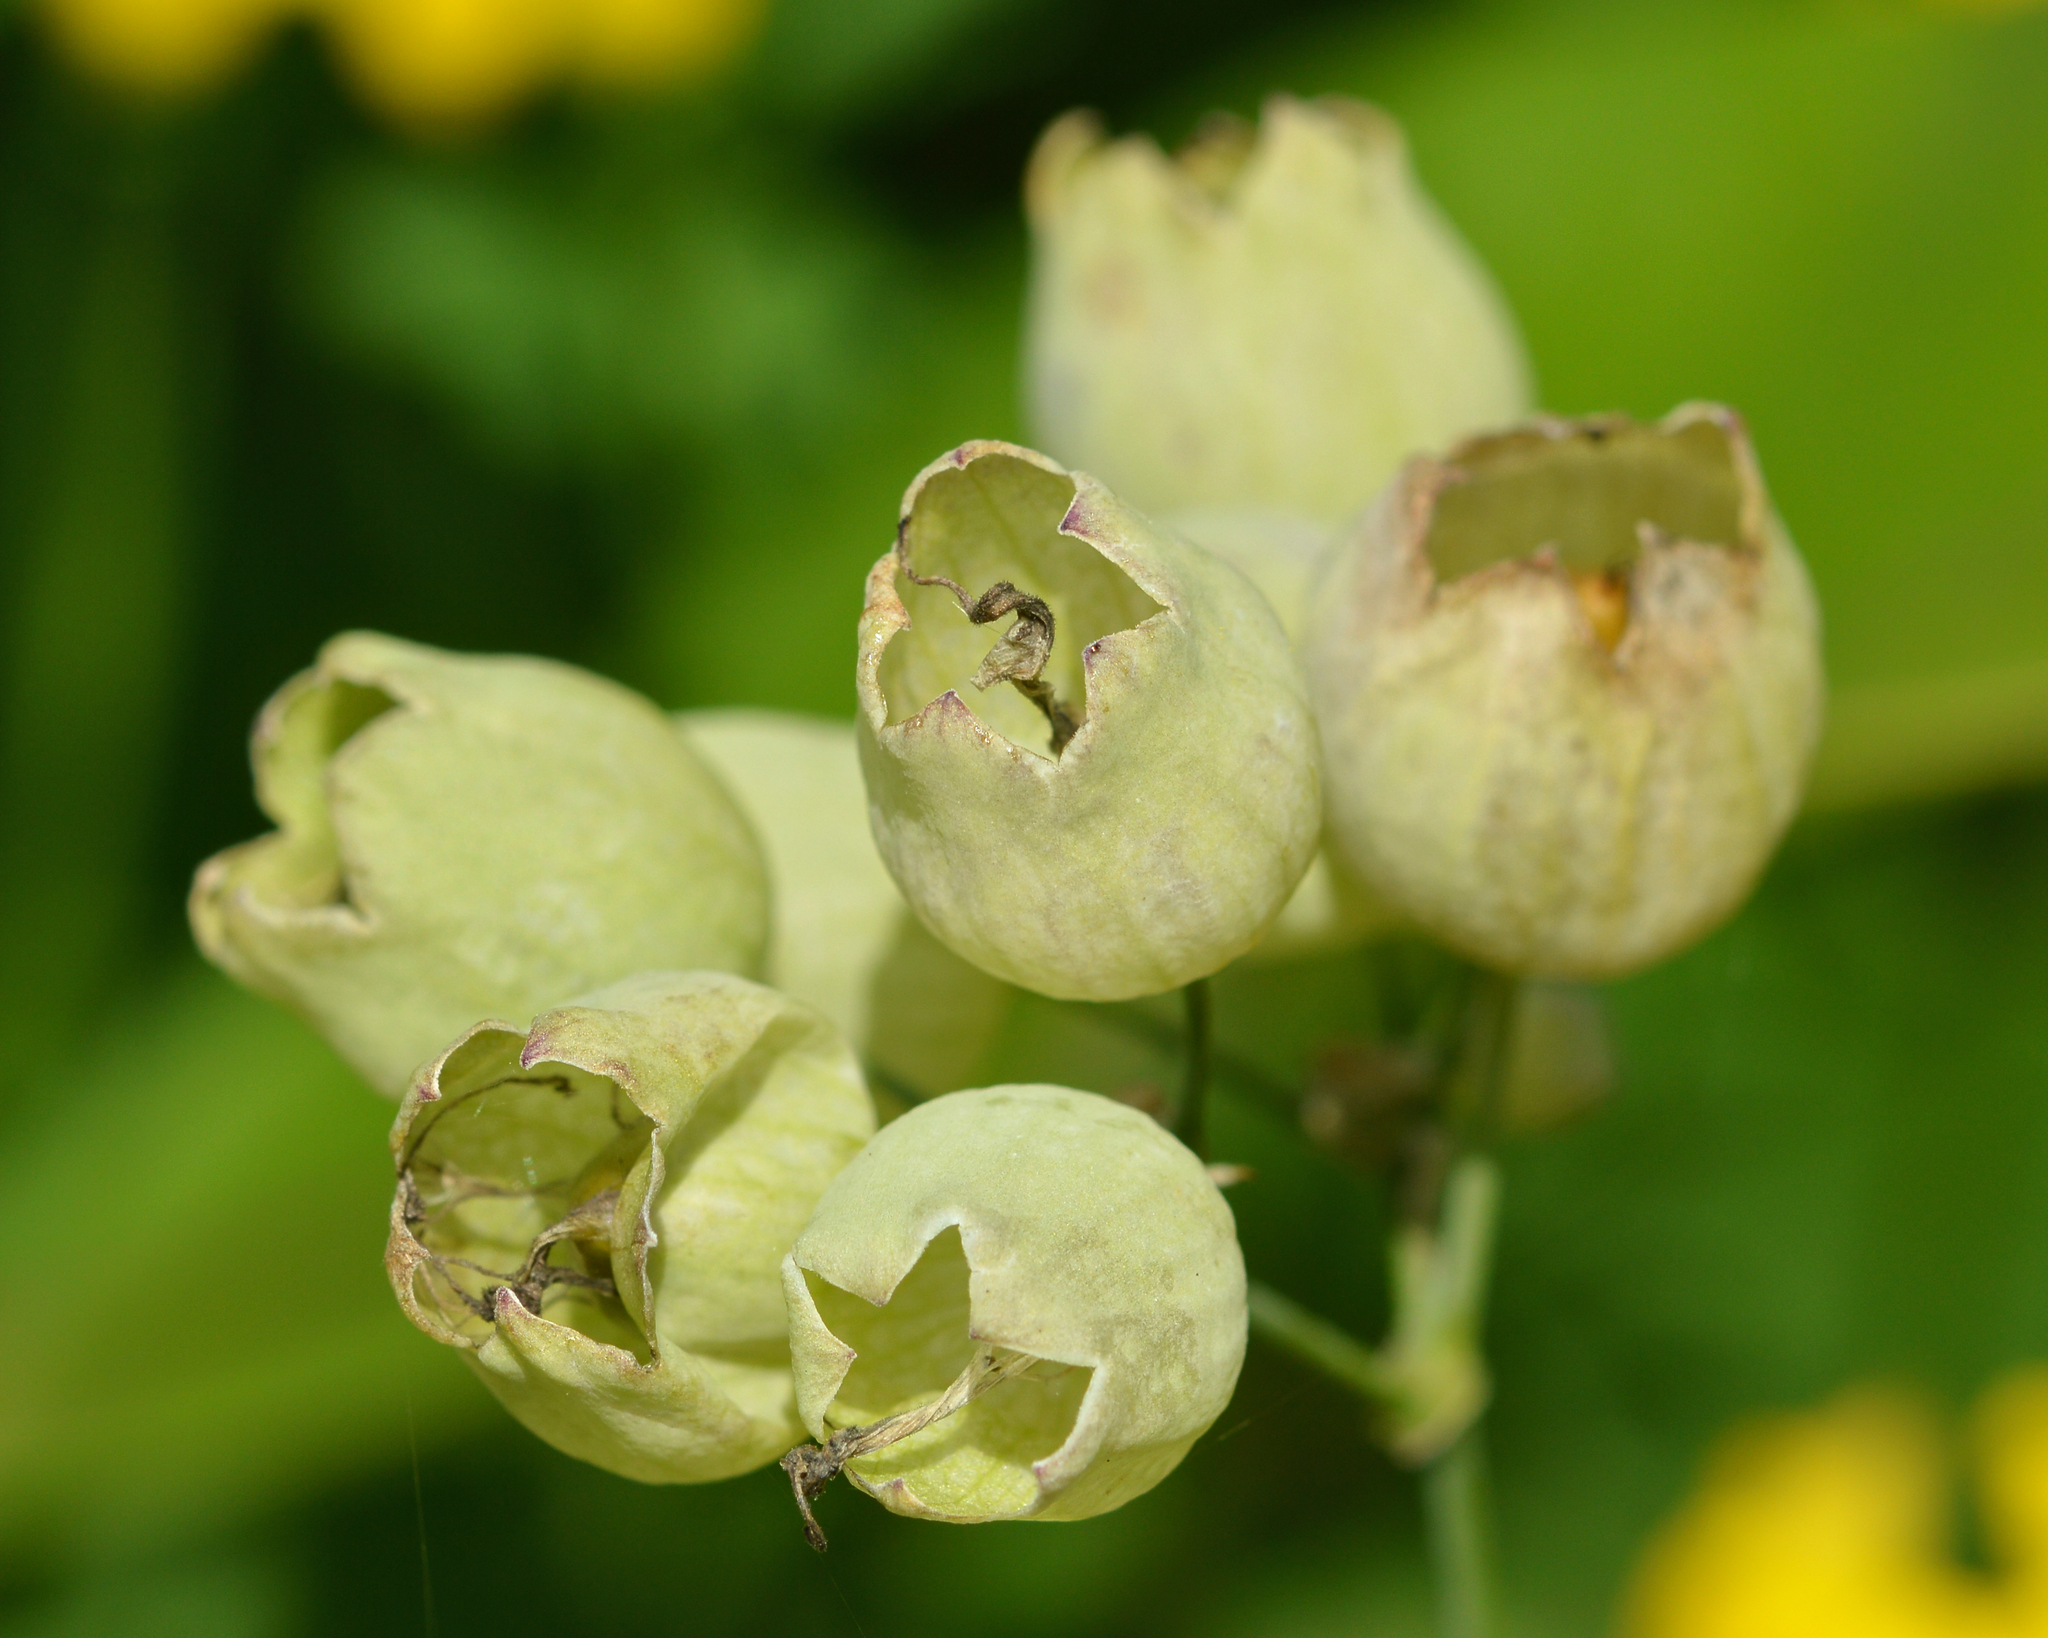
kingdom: Plantae
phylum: Tracheophyta
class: Magnoliopsida
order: Caryophyllales
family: Caryophyllaceae
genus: Silene
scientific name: Silene vulgaris
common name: Bladder campion
